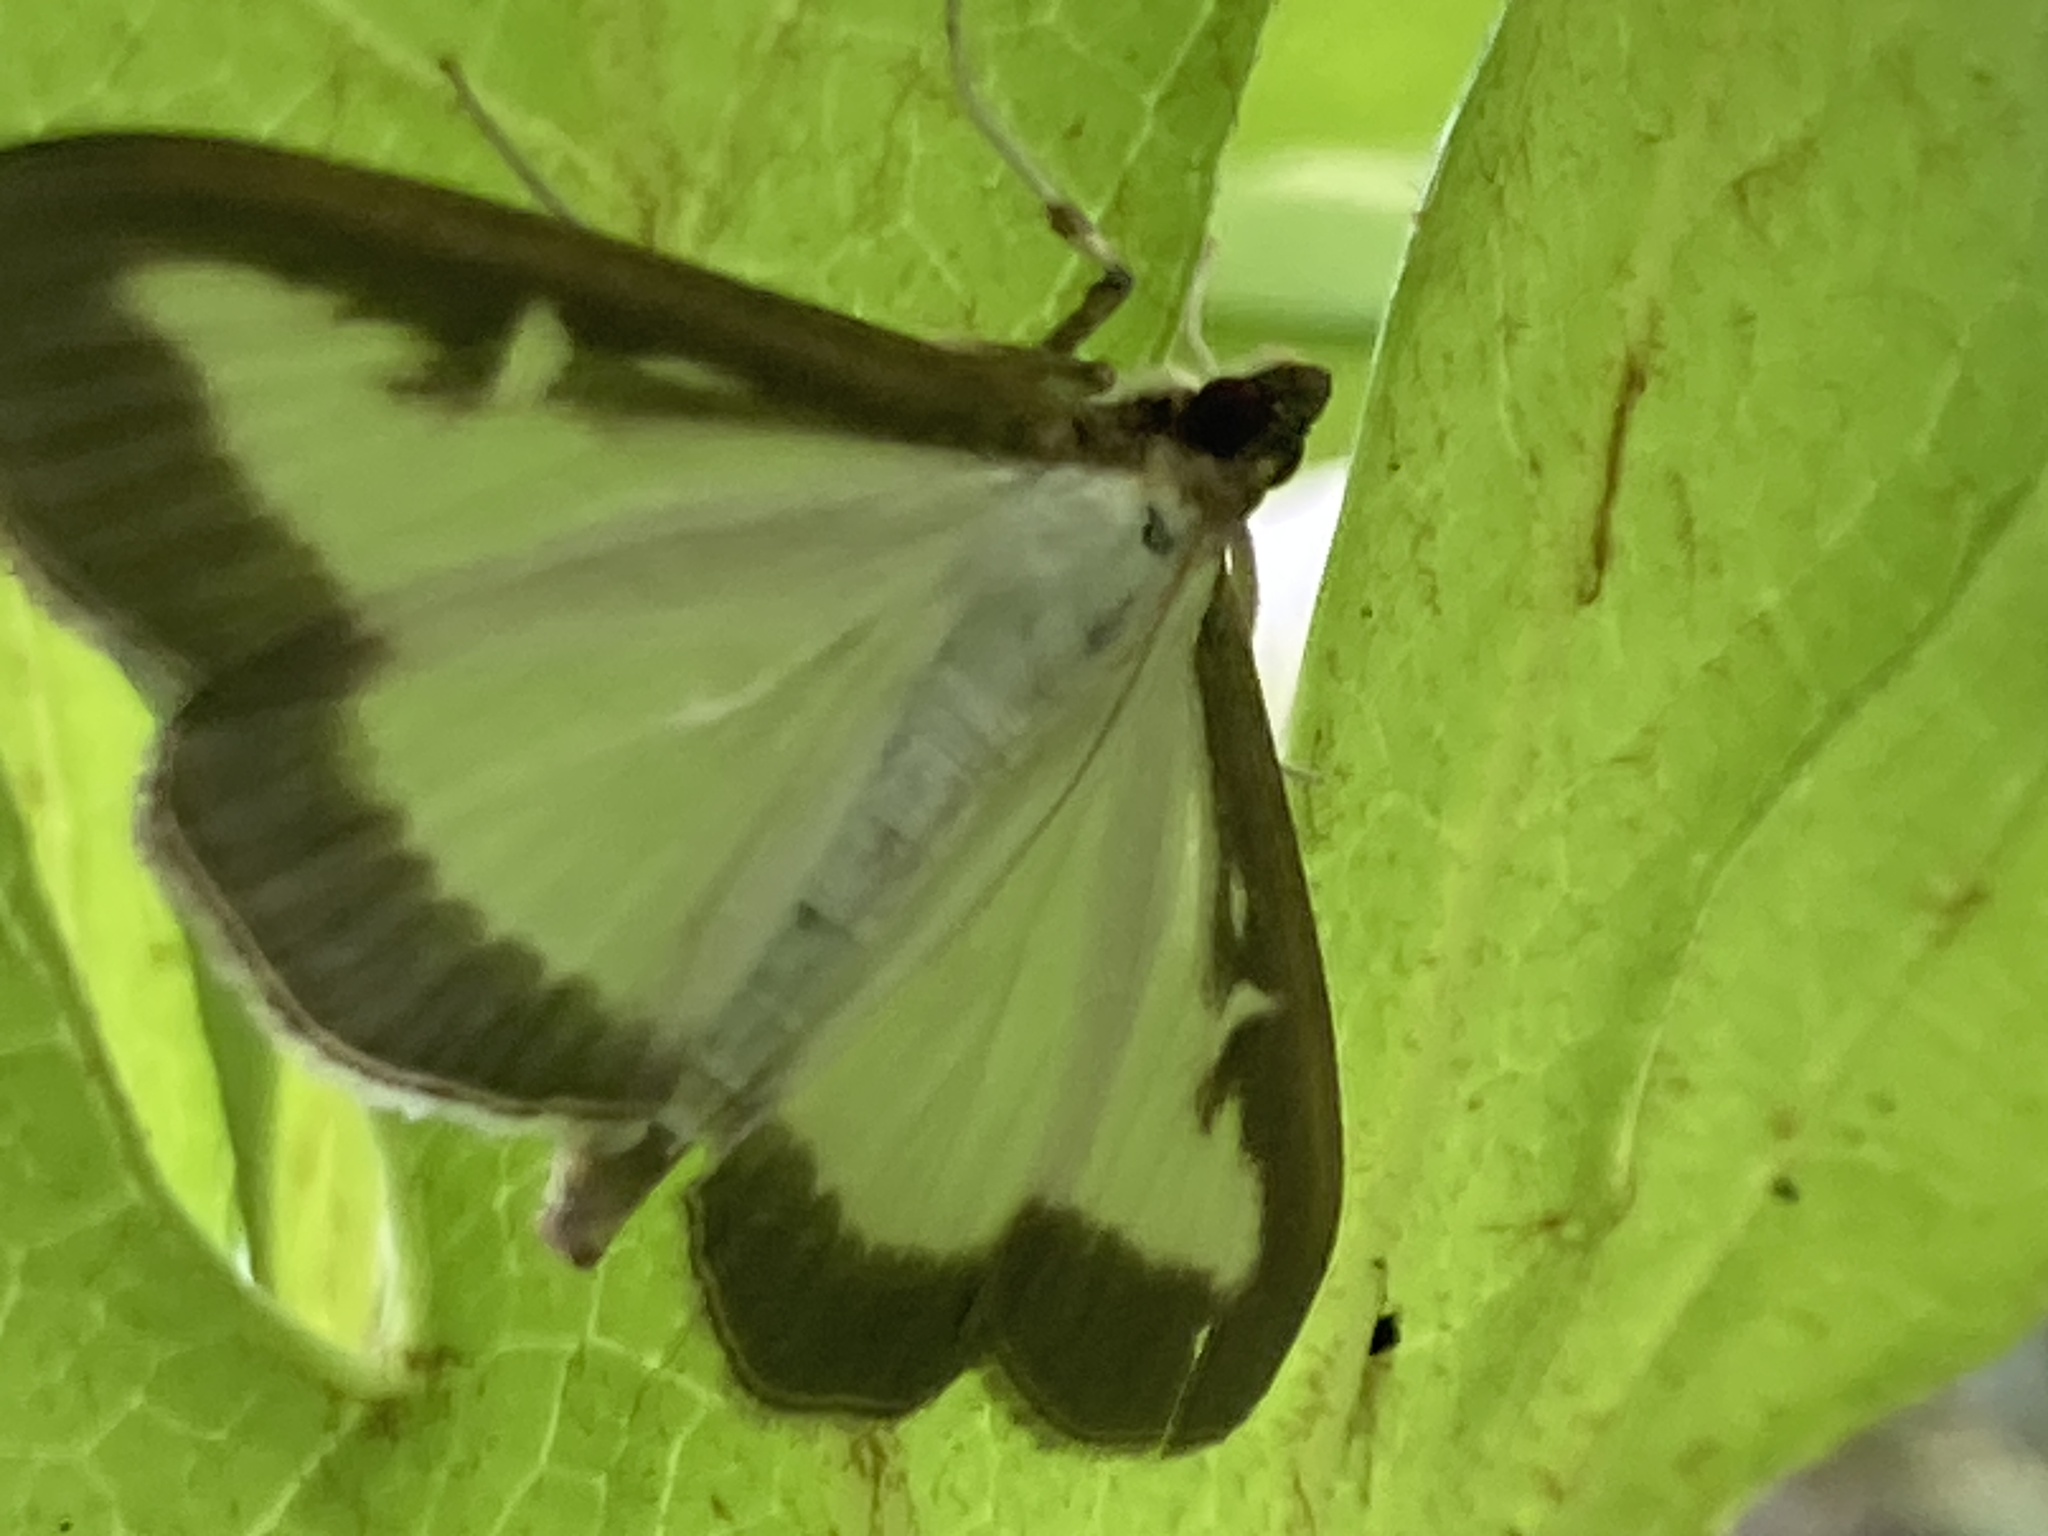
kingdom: Animalia
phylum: Arthropoda
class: Insecta
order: Lepidoptera
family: Crambidae
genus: Cydalima
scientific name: Cydalima perspectalis
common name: Box tree moth
